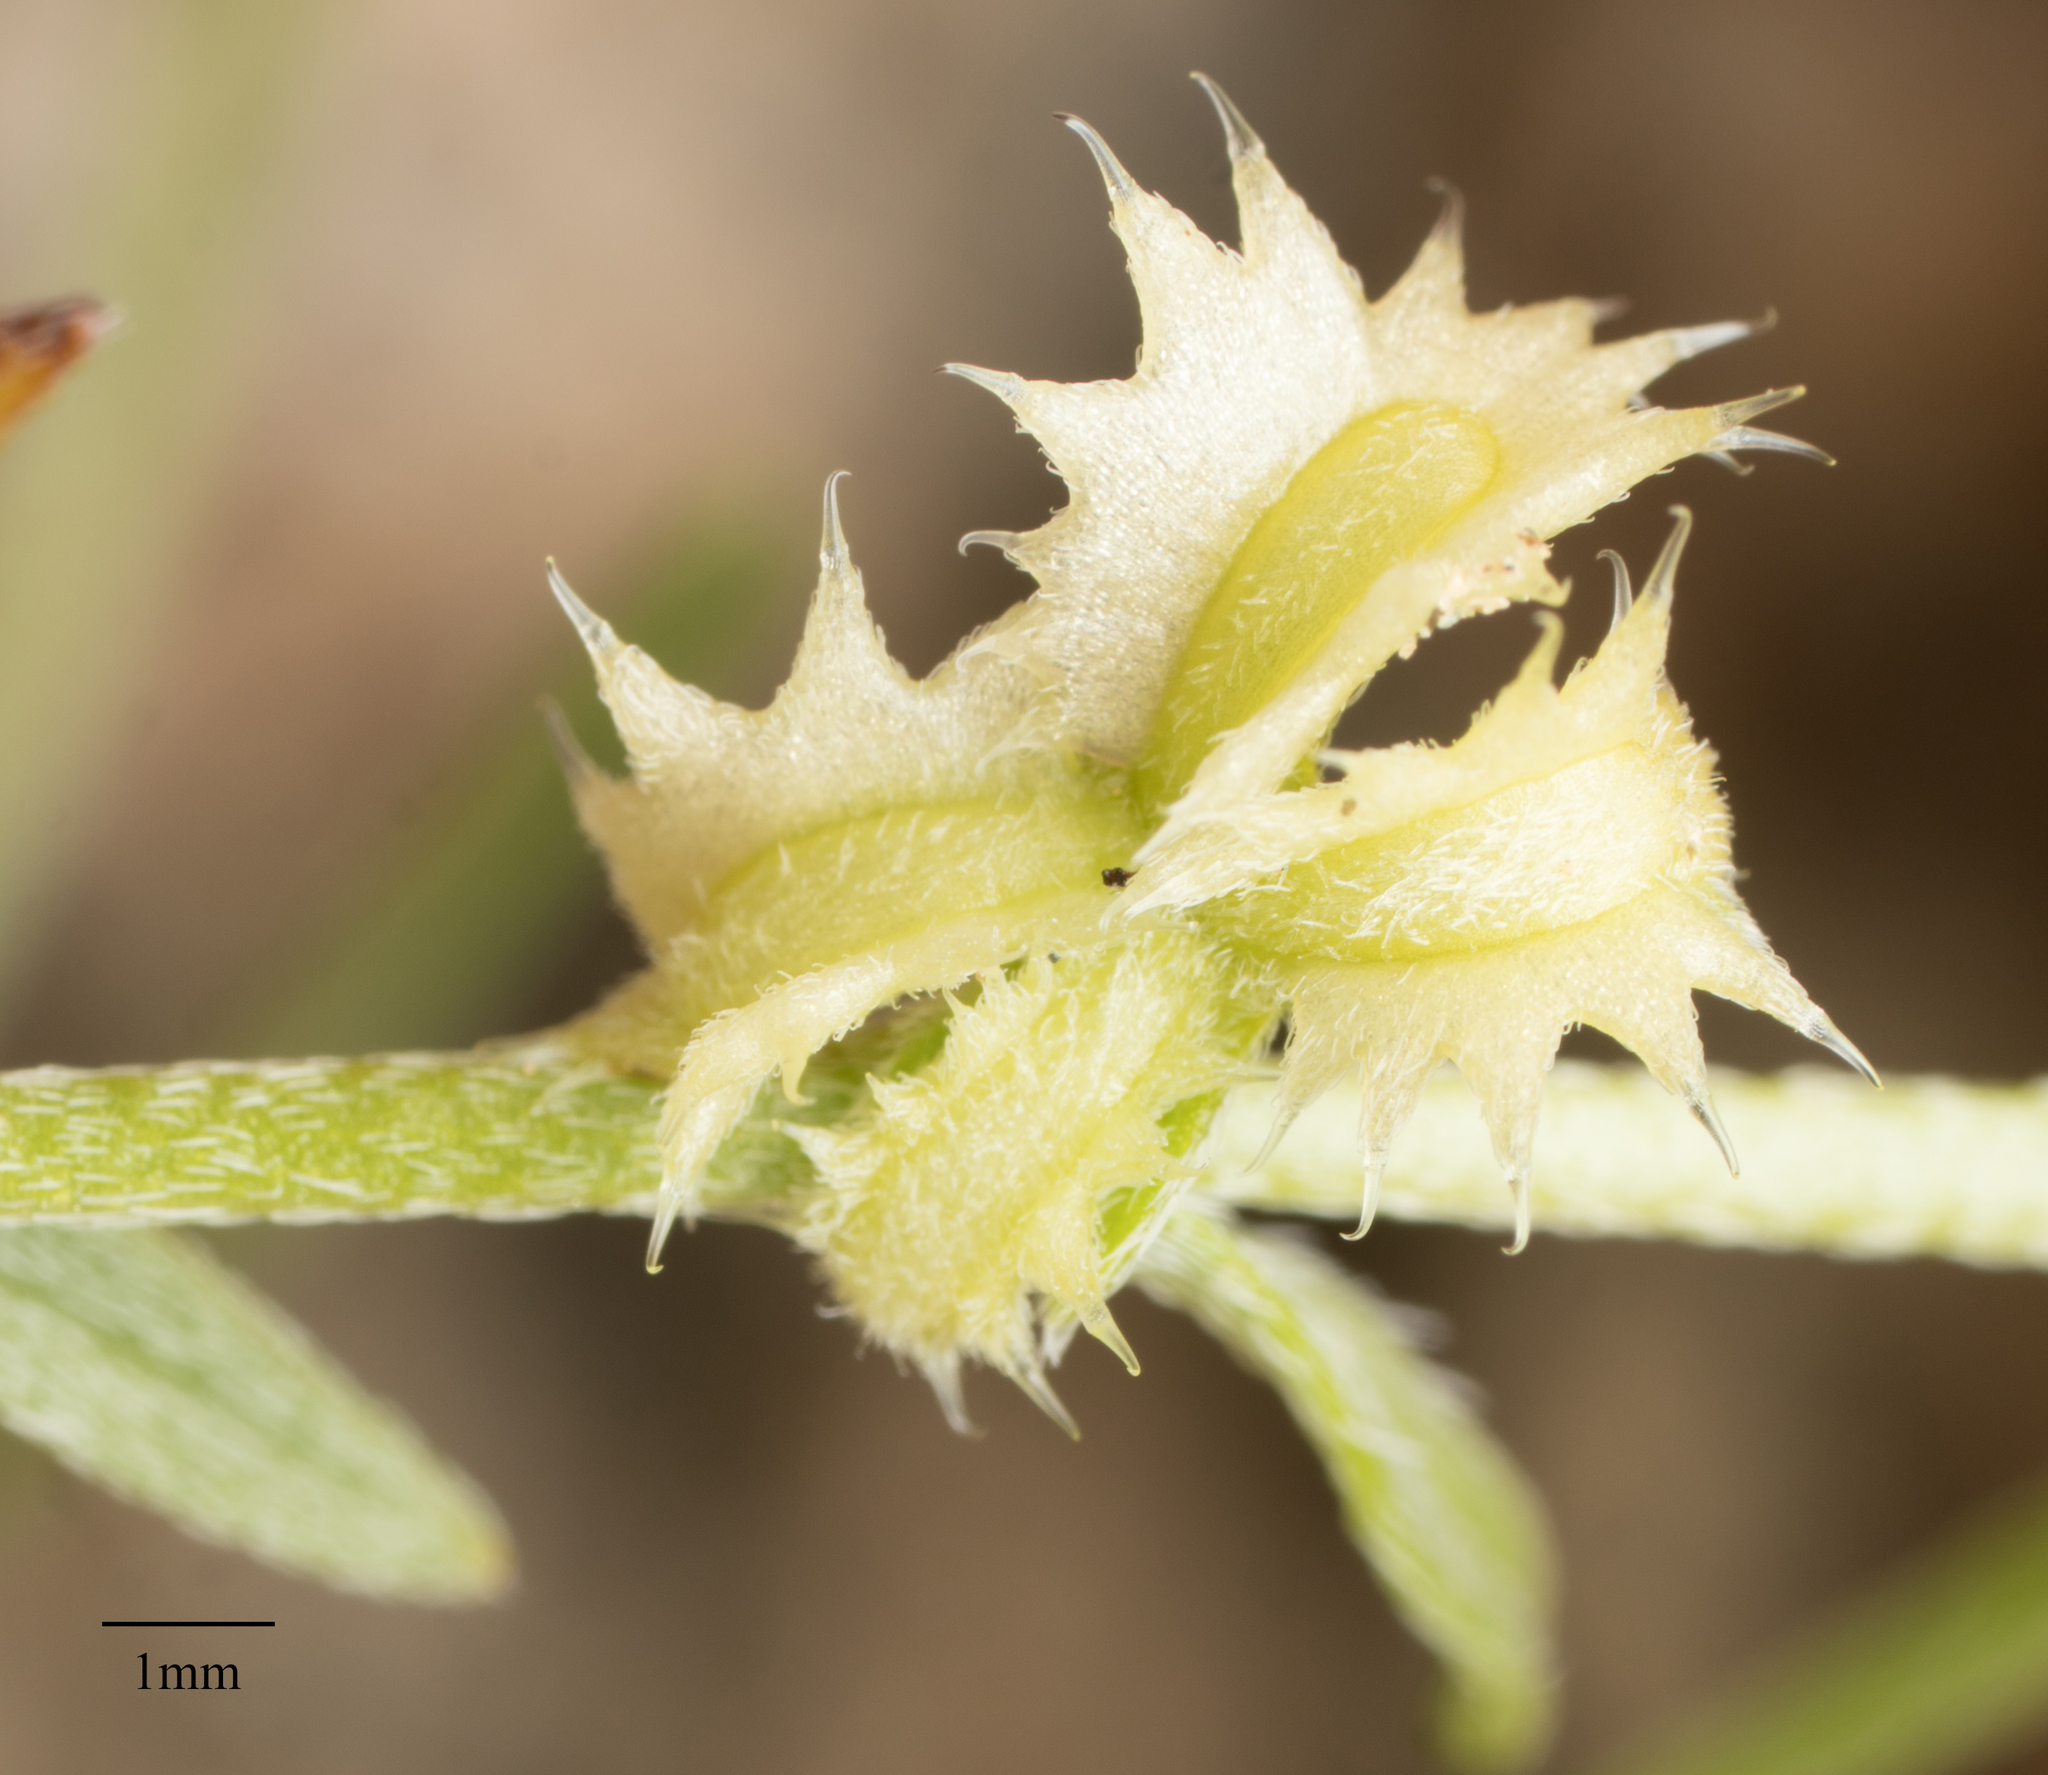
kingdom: Plantae
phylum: Tracheophyta
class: Magnoliopsida
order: Boraginales
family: Boraginaceae
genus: Pectocarya
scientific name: Pectocarya platycarpa
